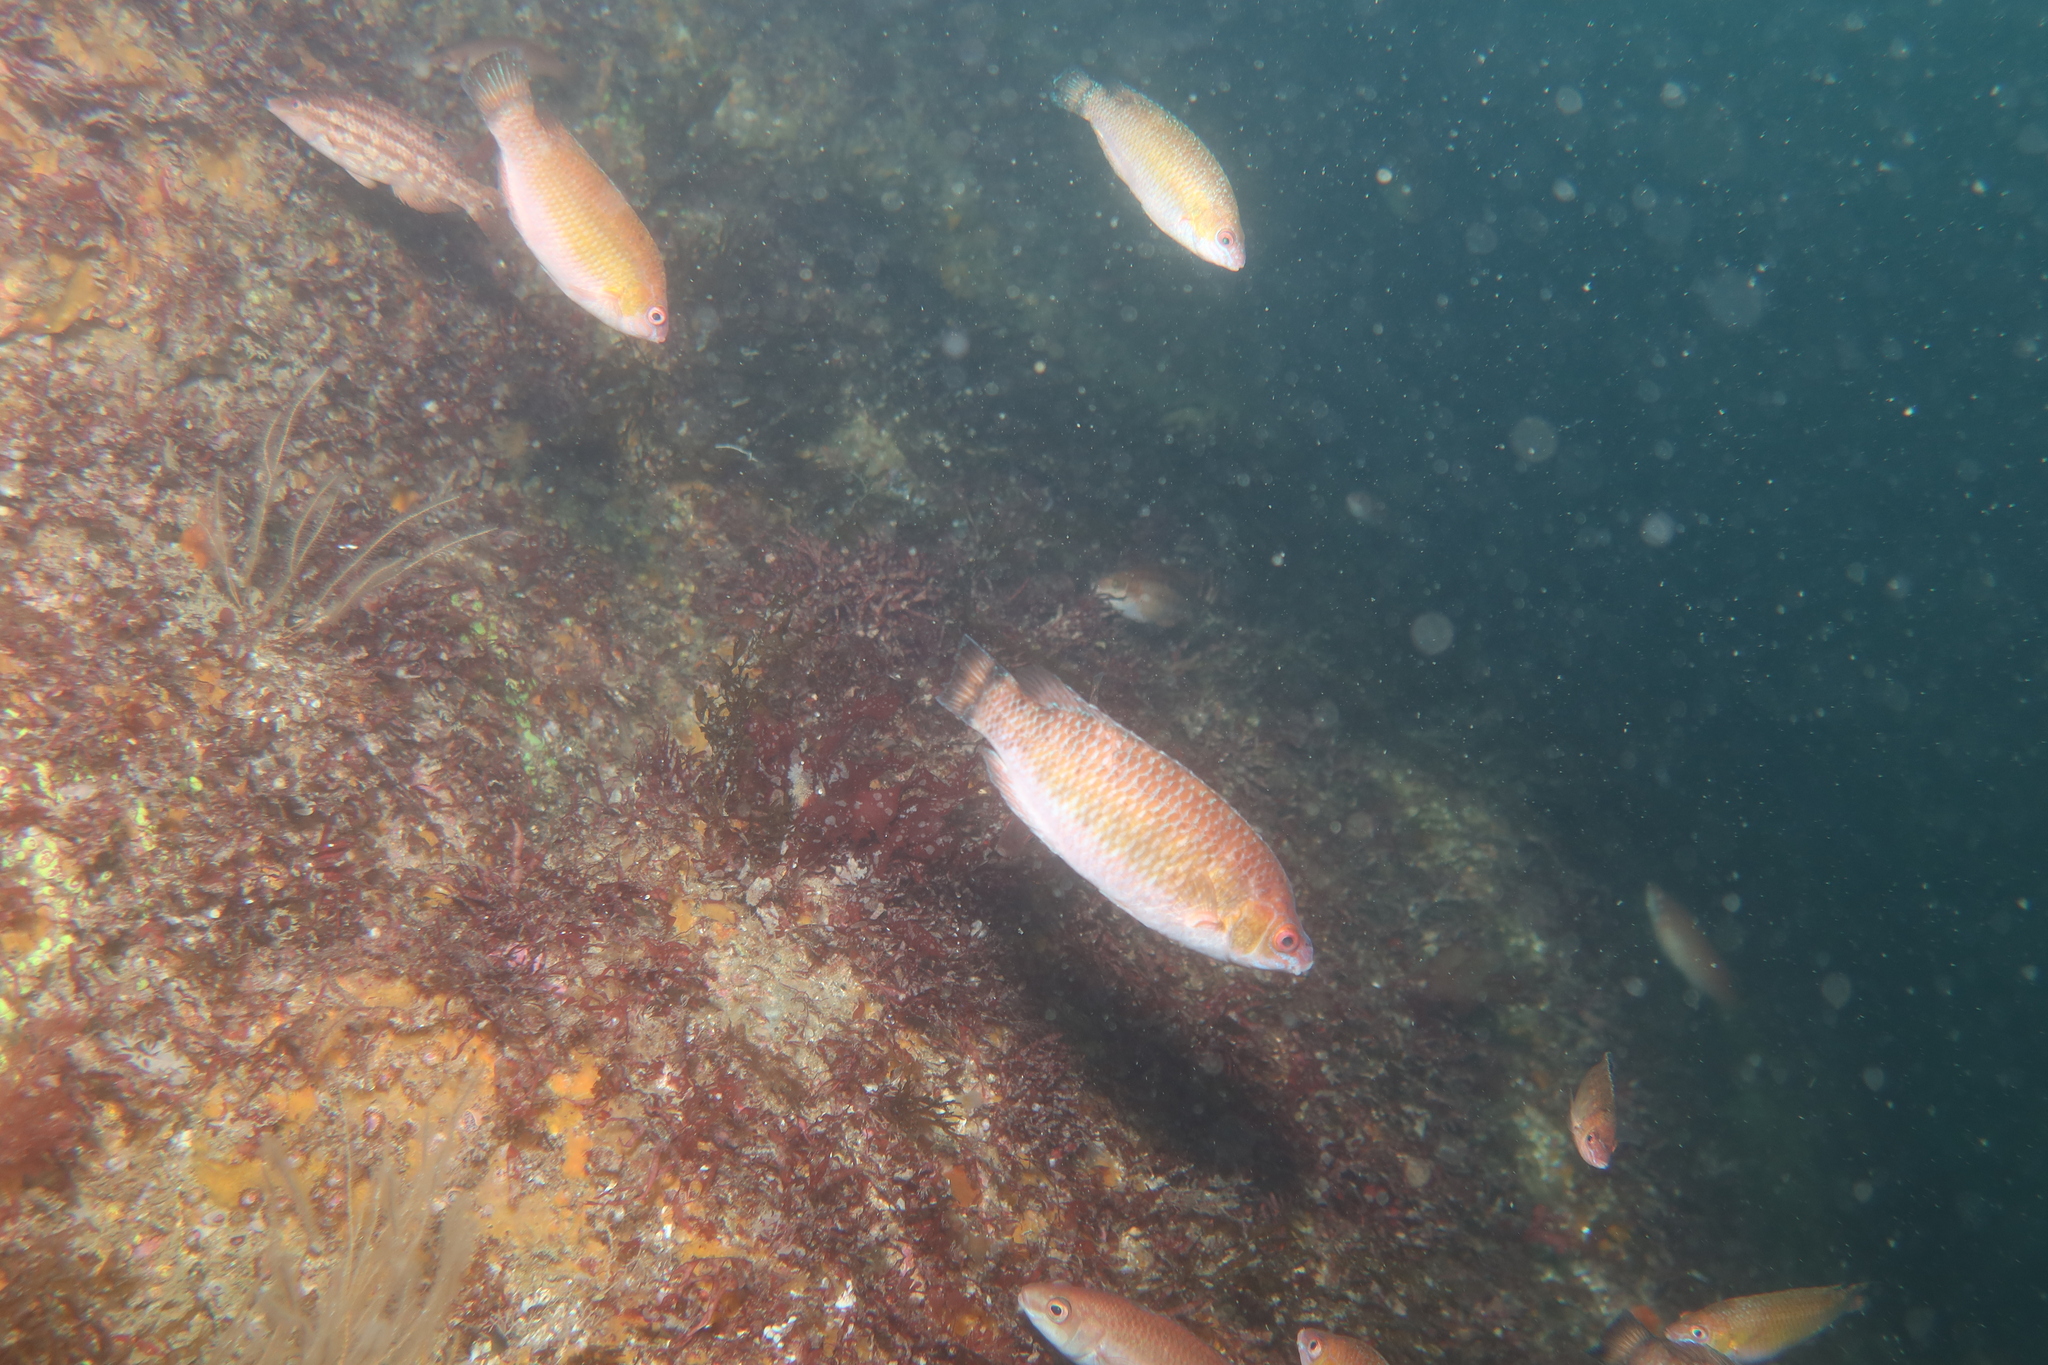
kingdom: Animalia
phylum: Chordata
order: Perciformes
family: Labridae
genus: Centrolabrus
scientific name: Centrolabrus exoletus
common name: Rock cook
